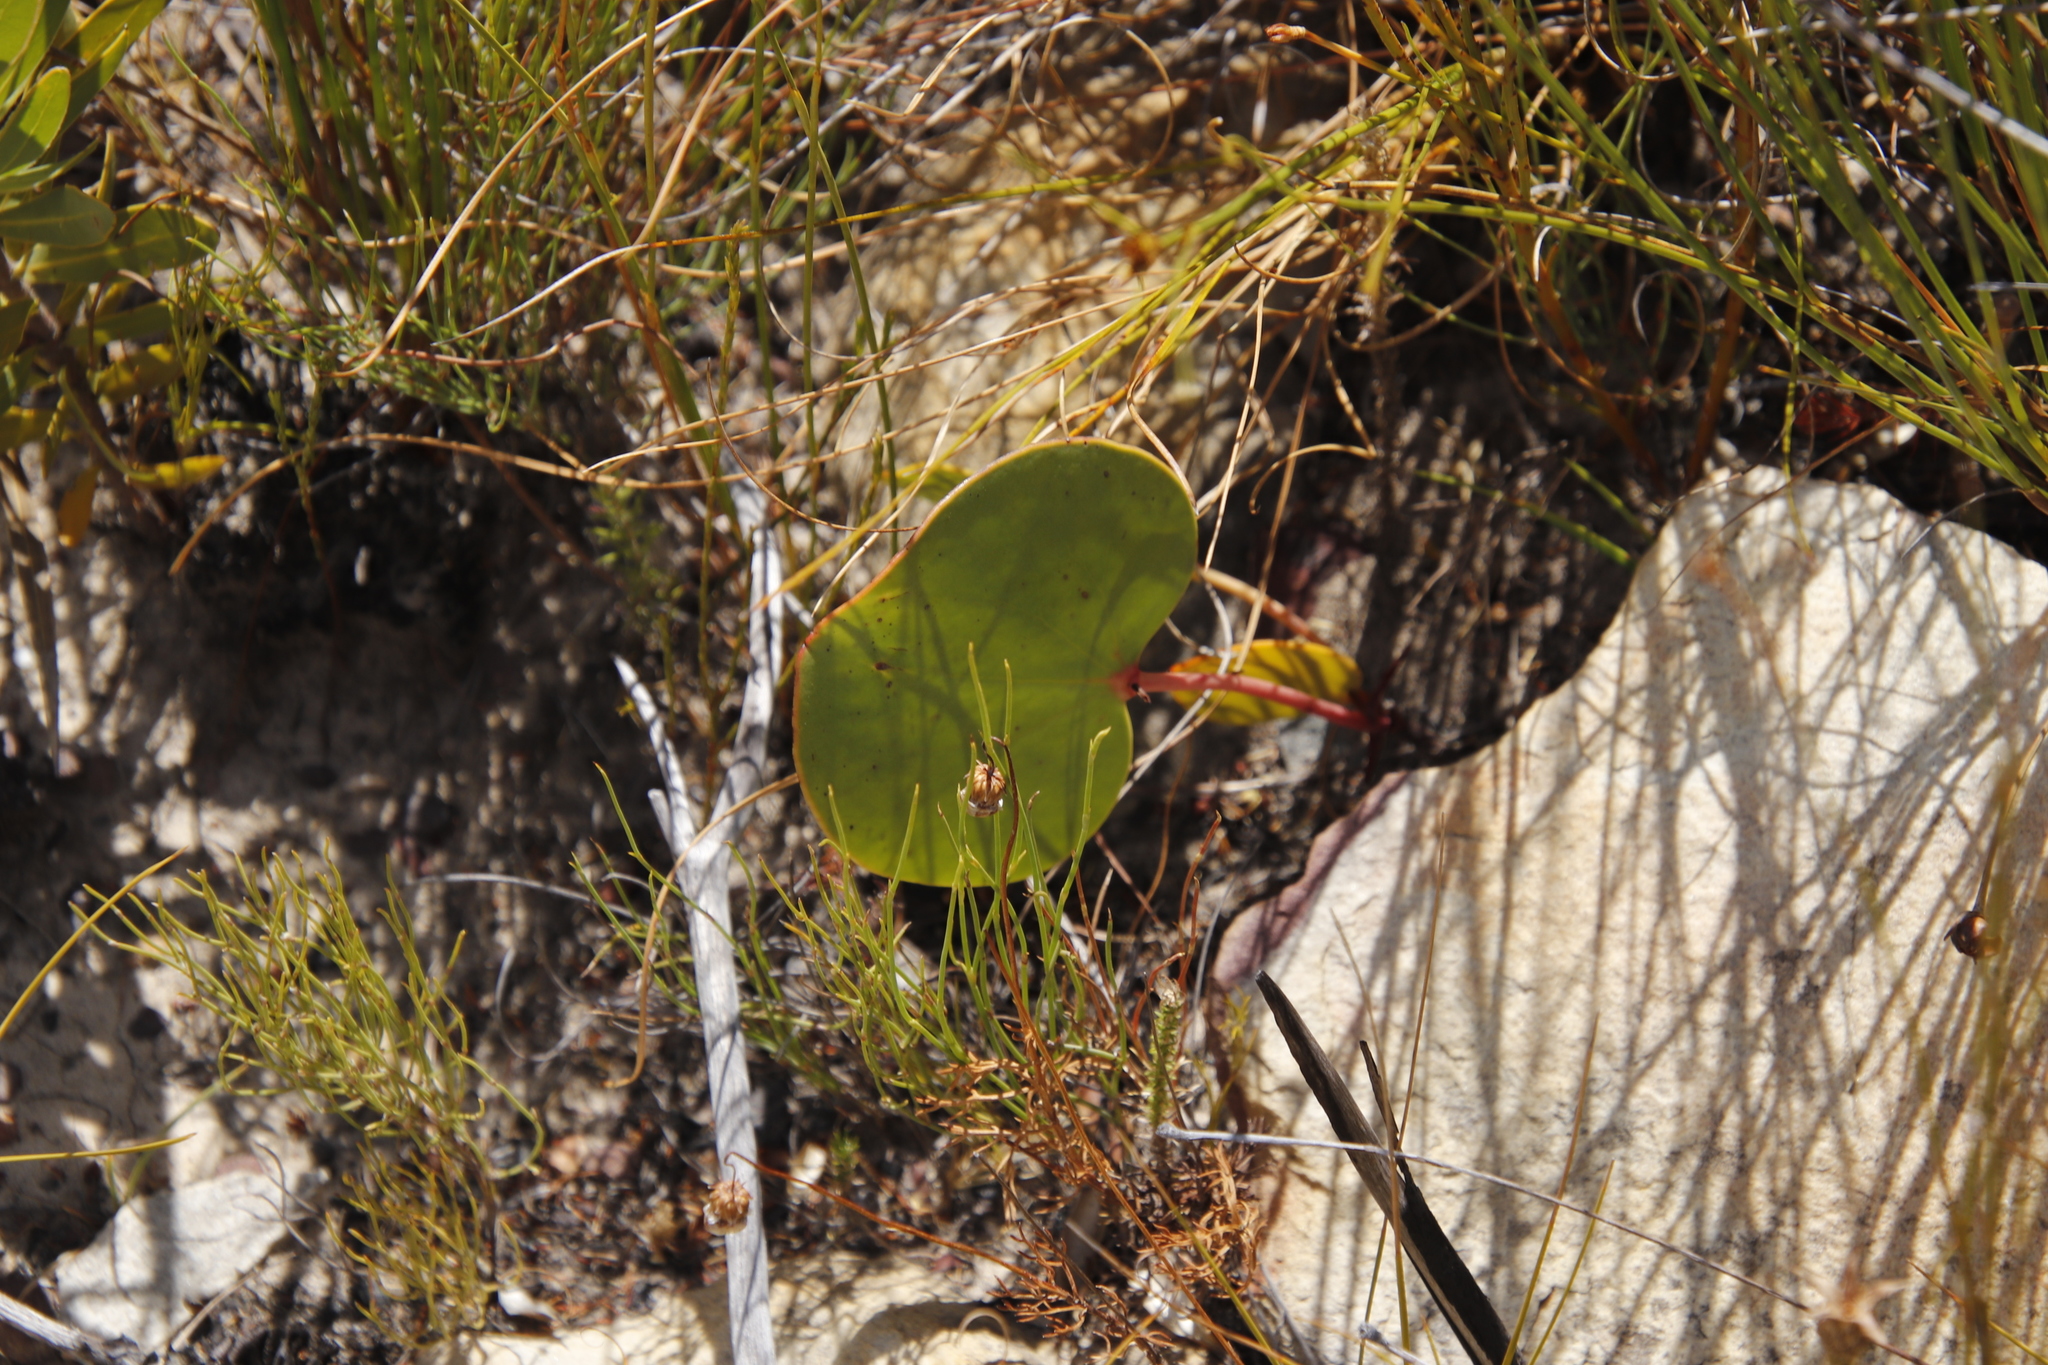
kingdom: Plantae
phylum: Tracheophyta
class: Magnoliopsida
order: Proteales
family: Proteaceae
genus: Protea
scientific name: Protea cordata
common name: Heart-leaf sugarbush
